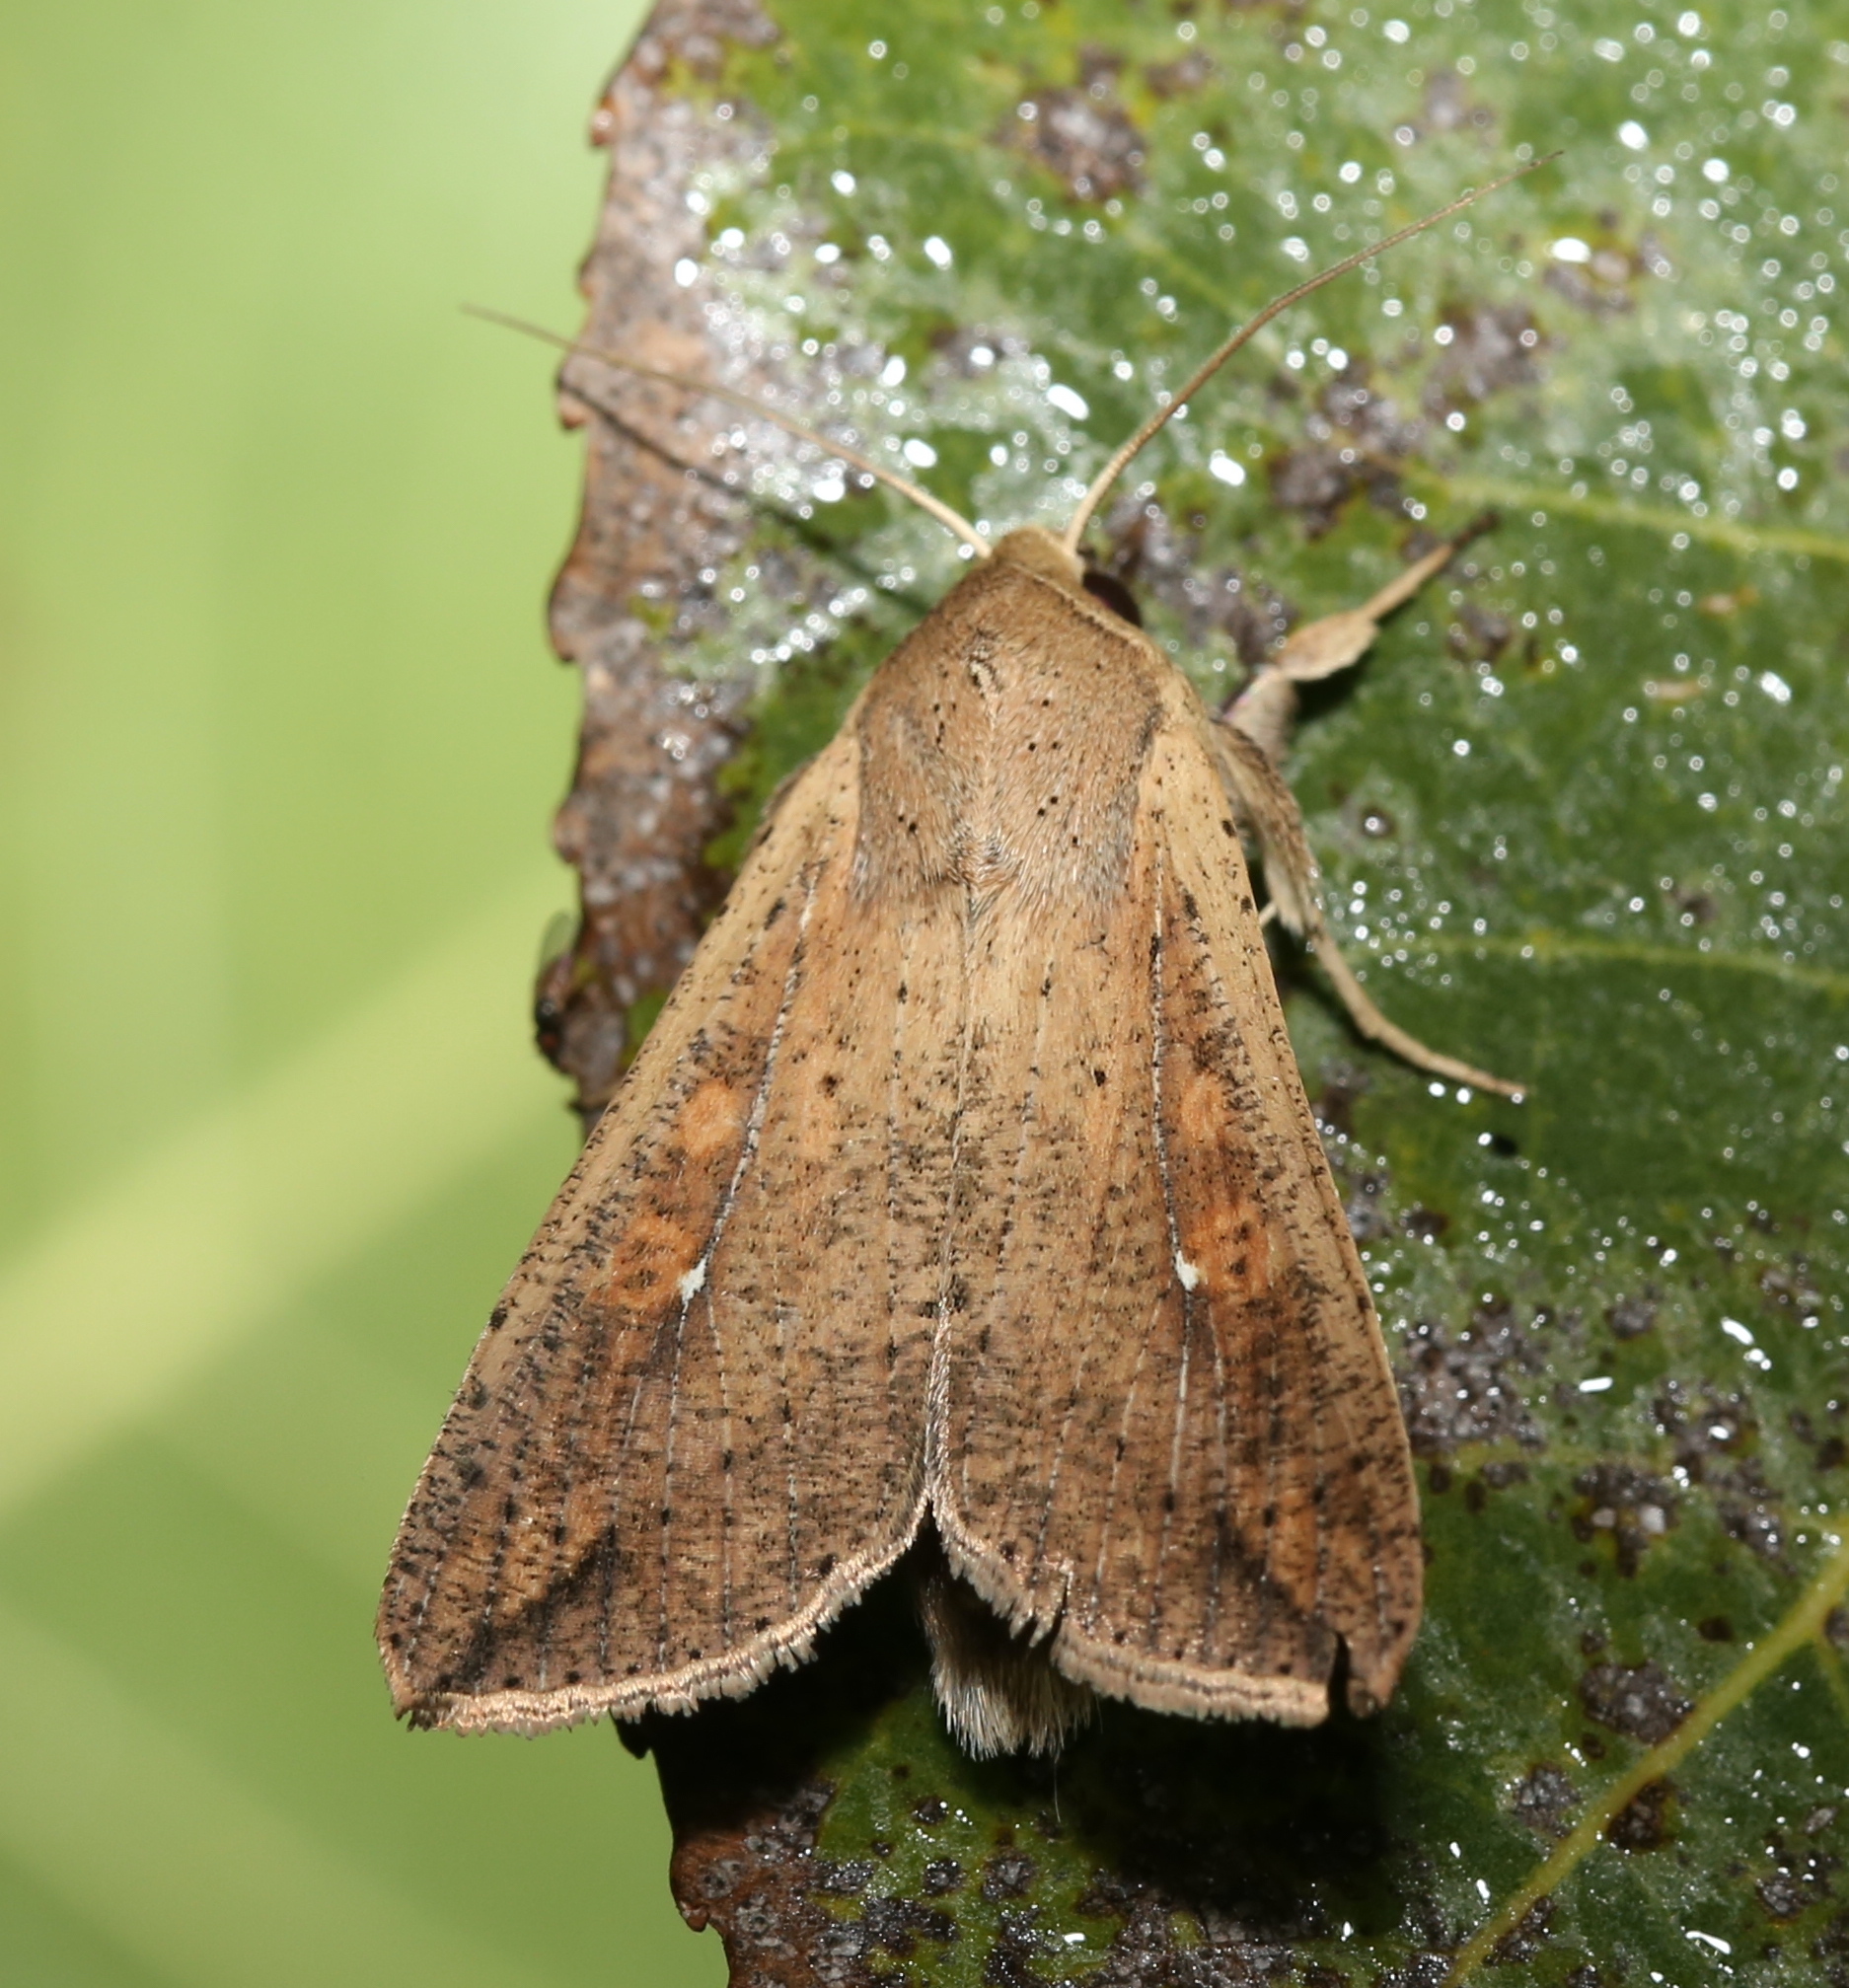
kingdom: Animalia
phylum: Arthropoda
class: Insecta
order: Lepidoptera
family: Noctuidae
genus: Mythimna
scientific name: Mythimna unipuncta
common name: White-speck
